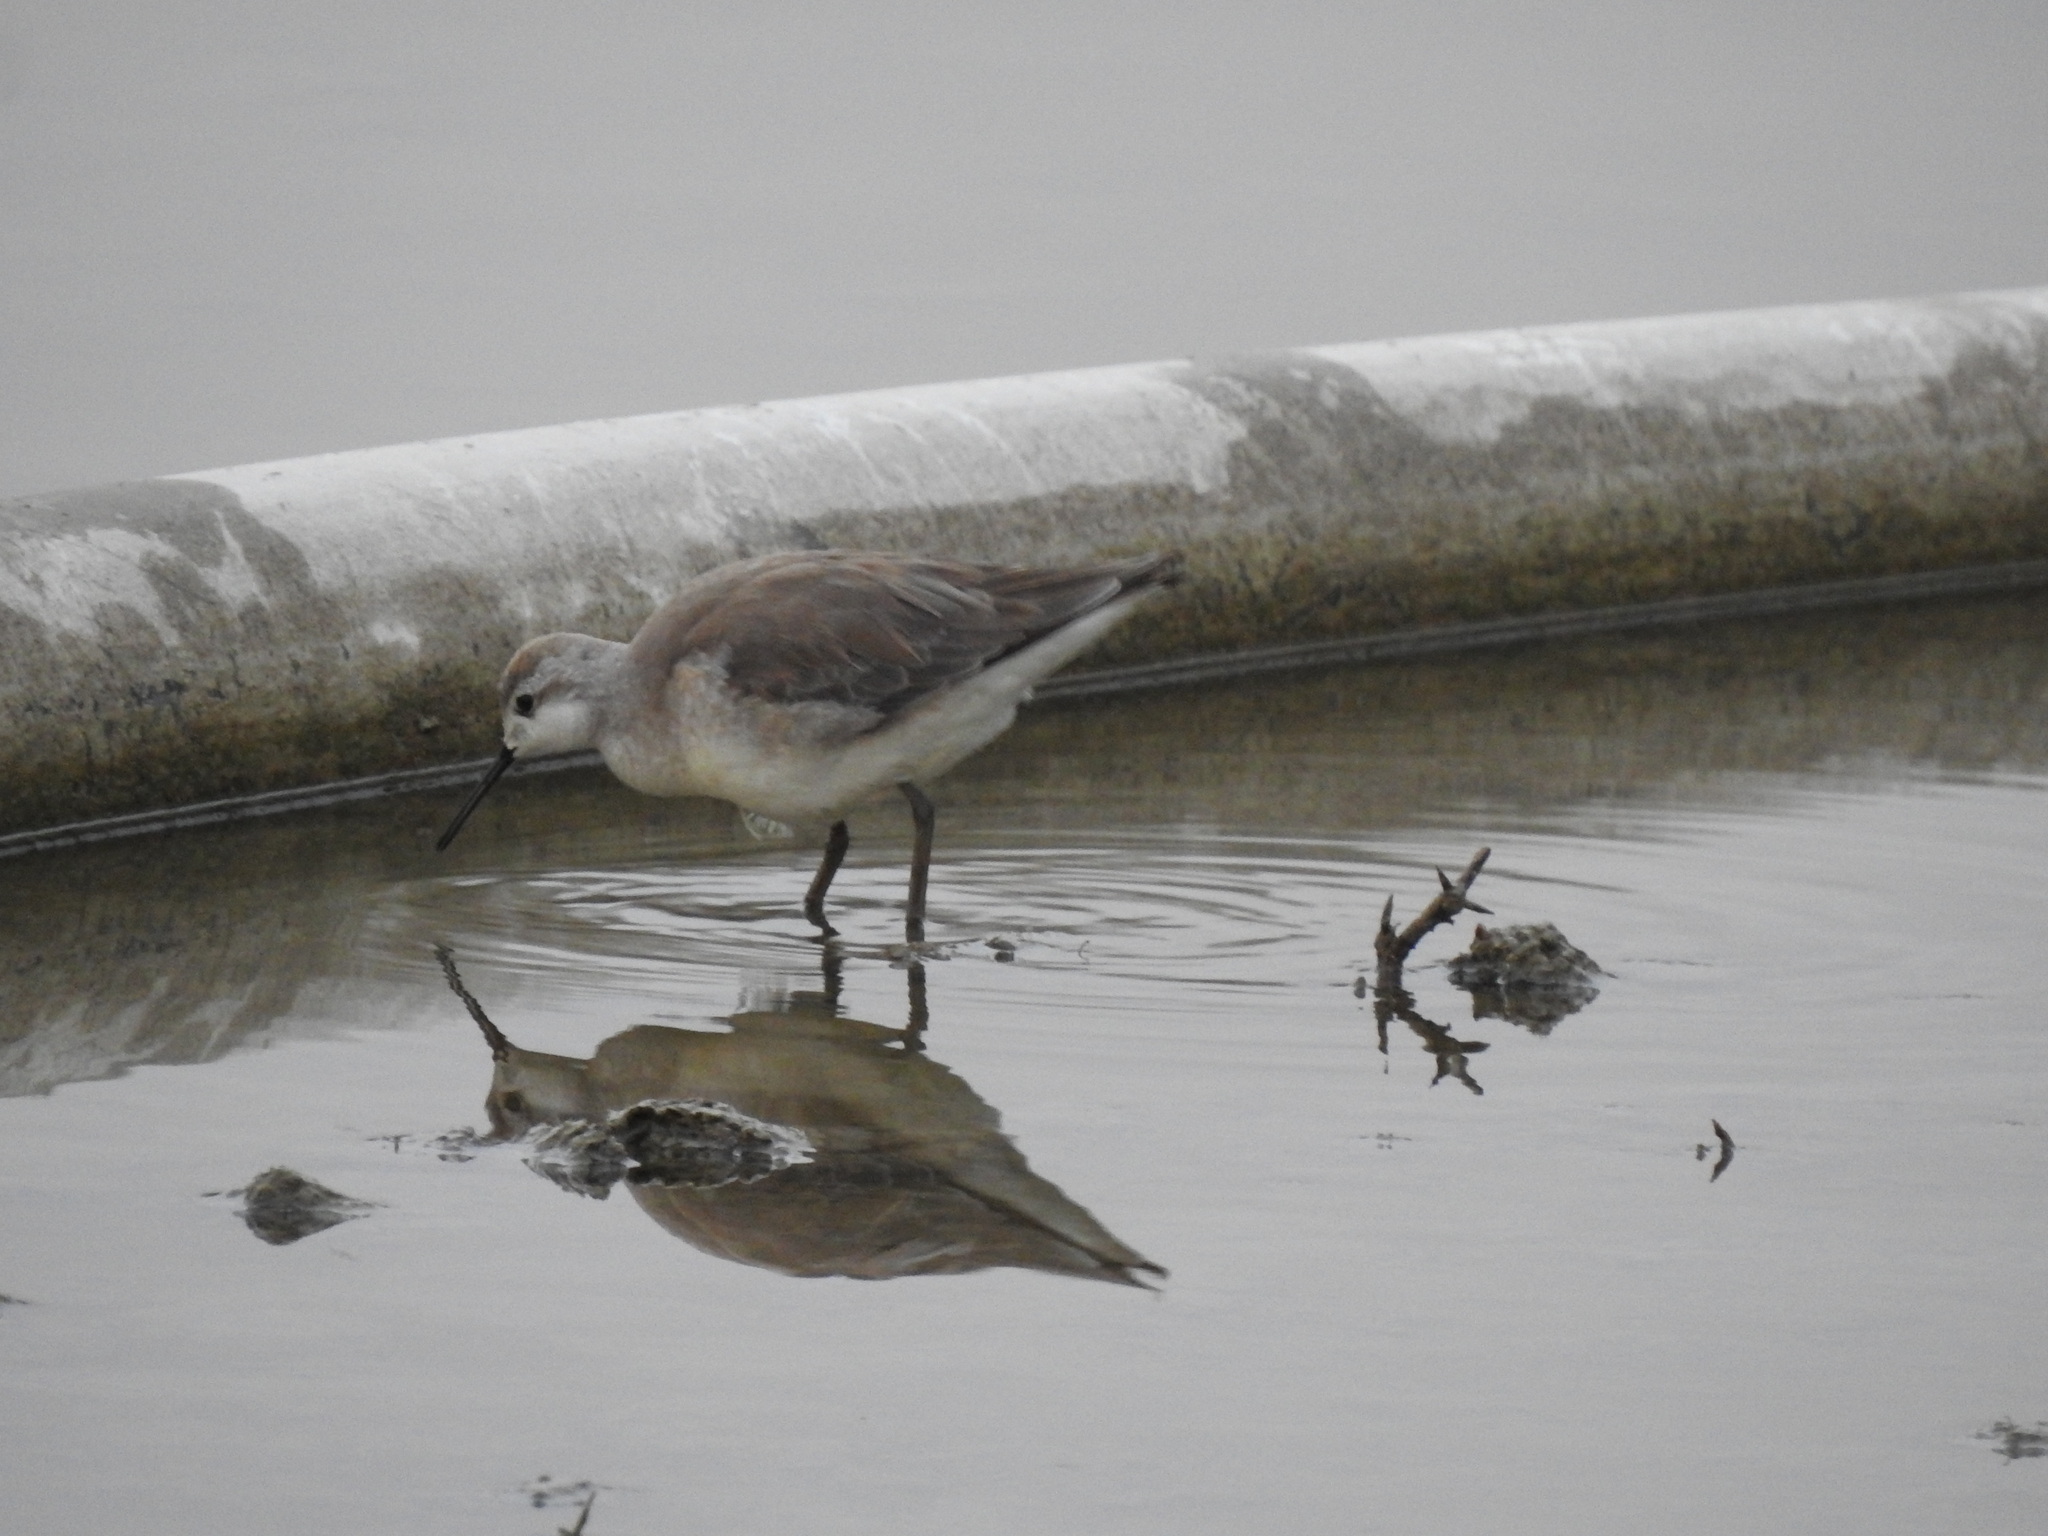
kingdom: Animalia
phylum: Chordata
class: Aves
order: Charadriiformes
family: Scolopacidae
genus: Phalaropus
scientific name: Phalaropus tricolor
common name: Wilson's phalarope
